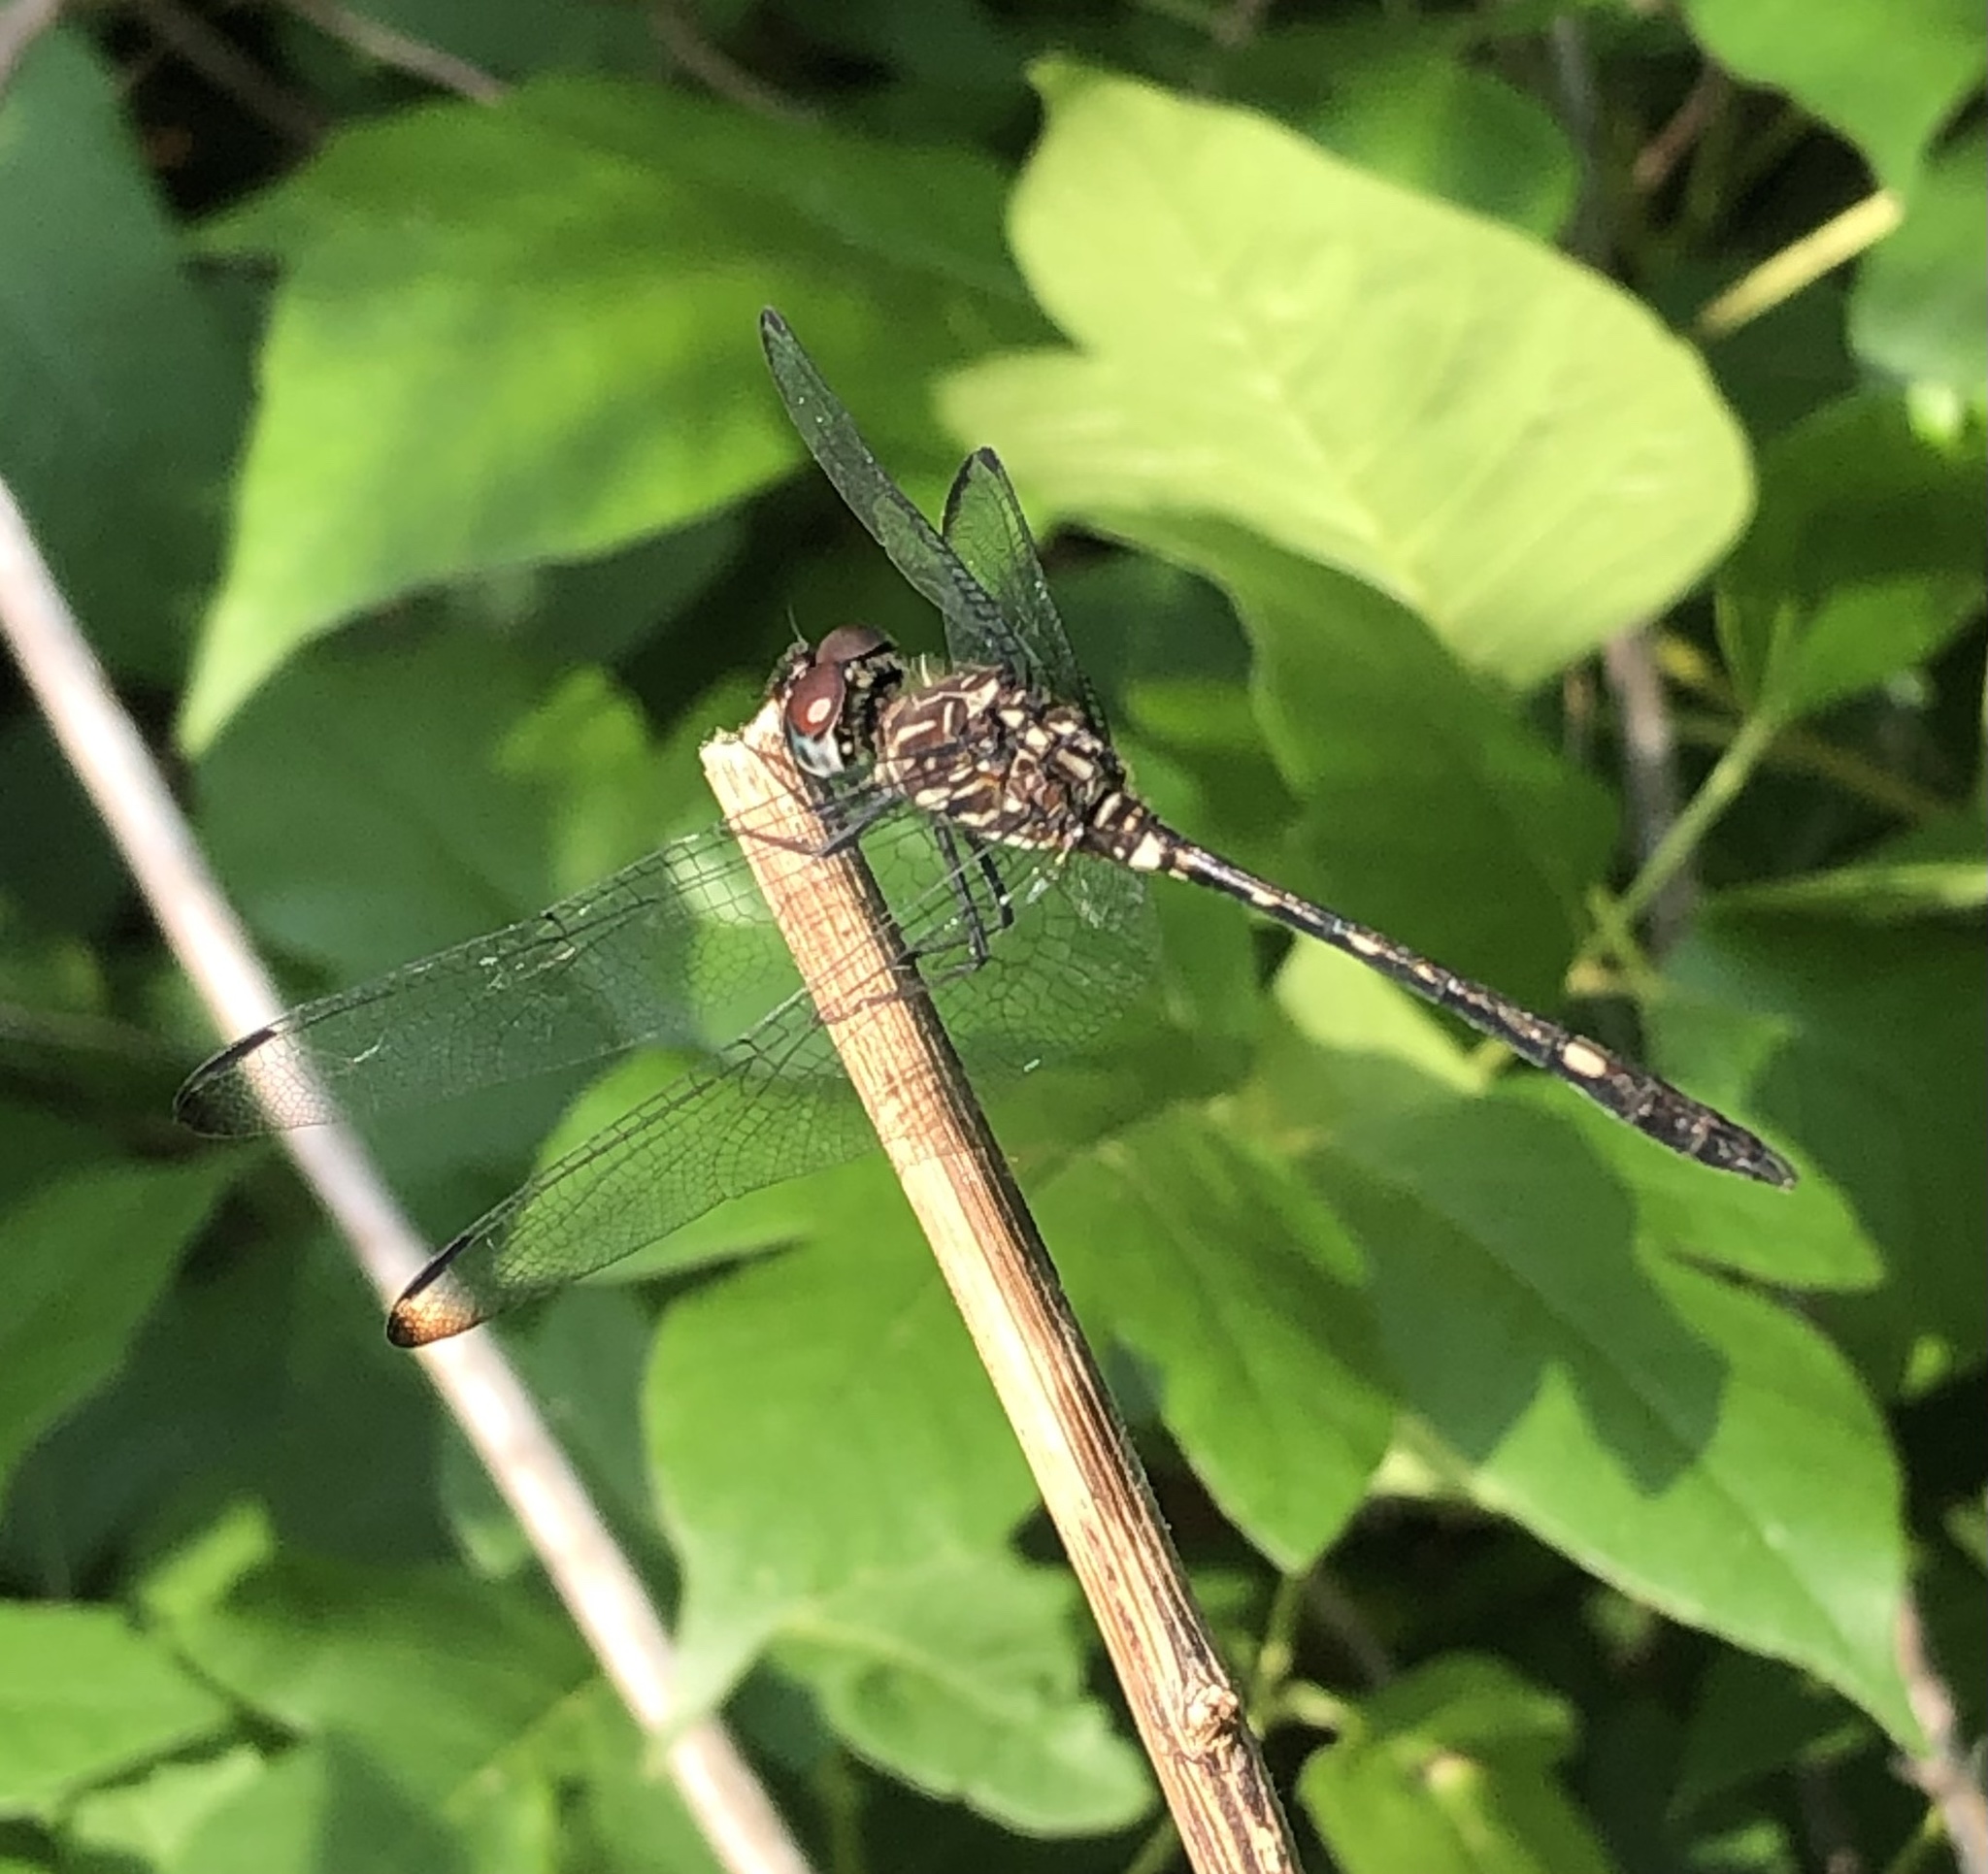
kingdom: Animalia
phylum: Arthropoda
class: Insecta
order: Odonata
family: Libellulidae
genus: Dythemis
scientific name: Dythemis velox
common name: Swift setwing
